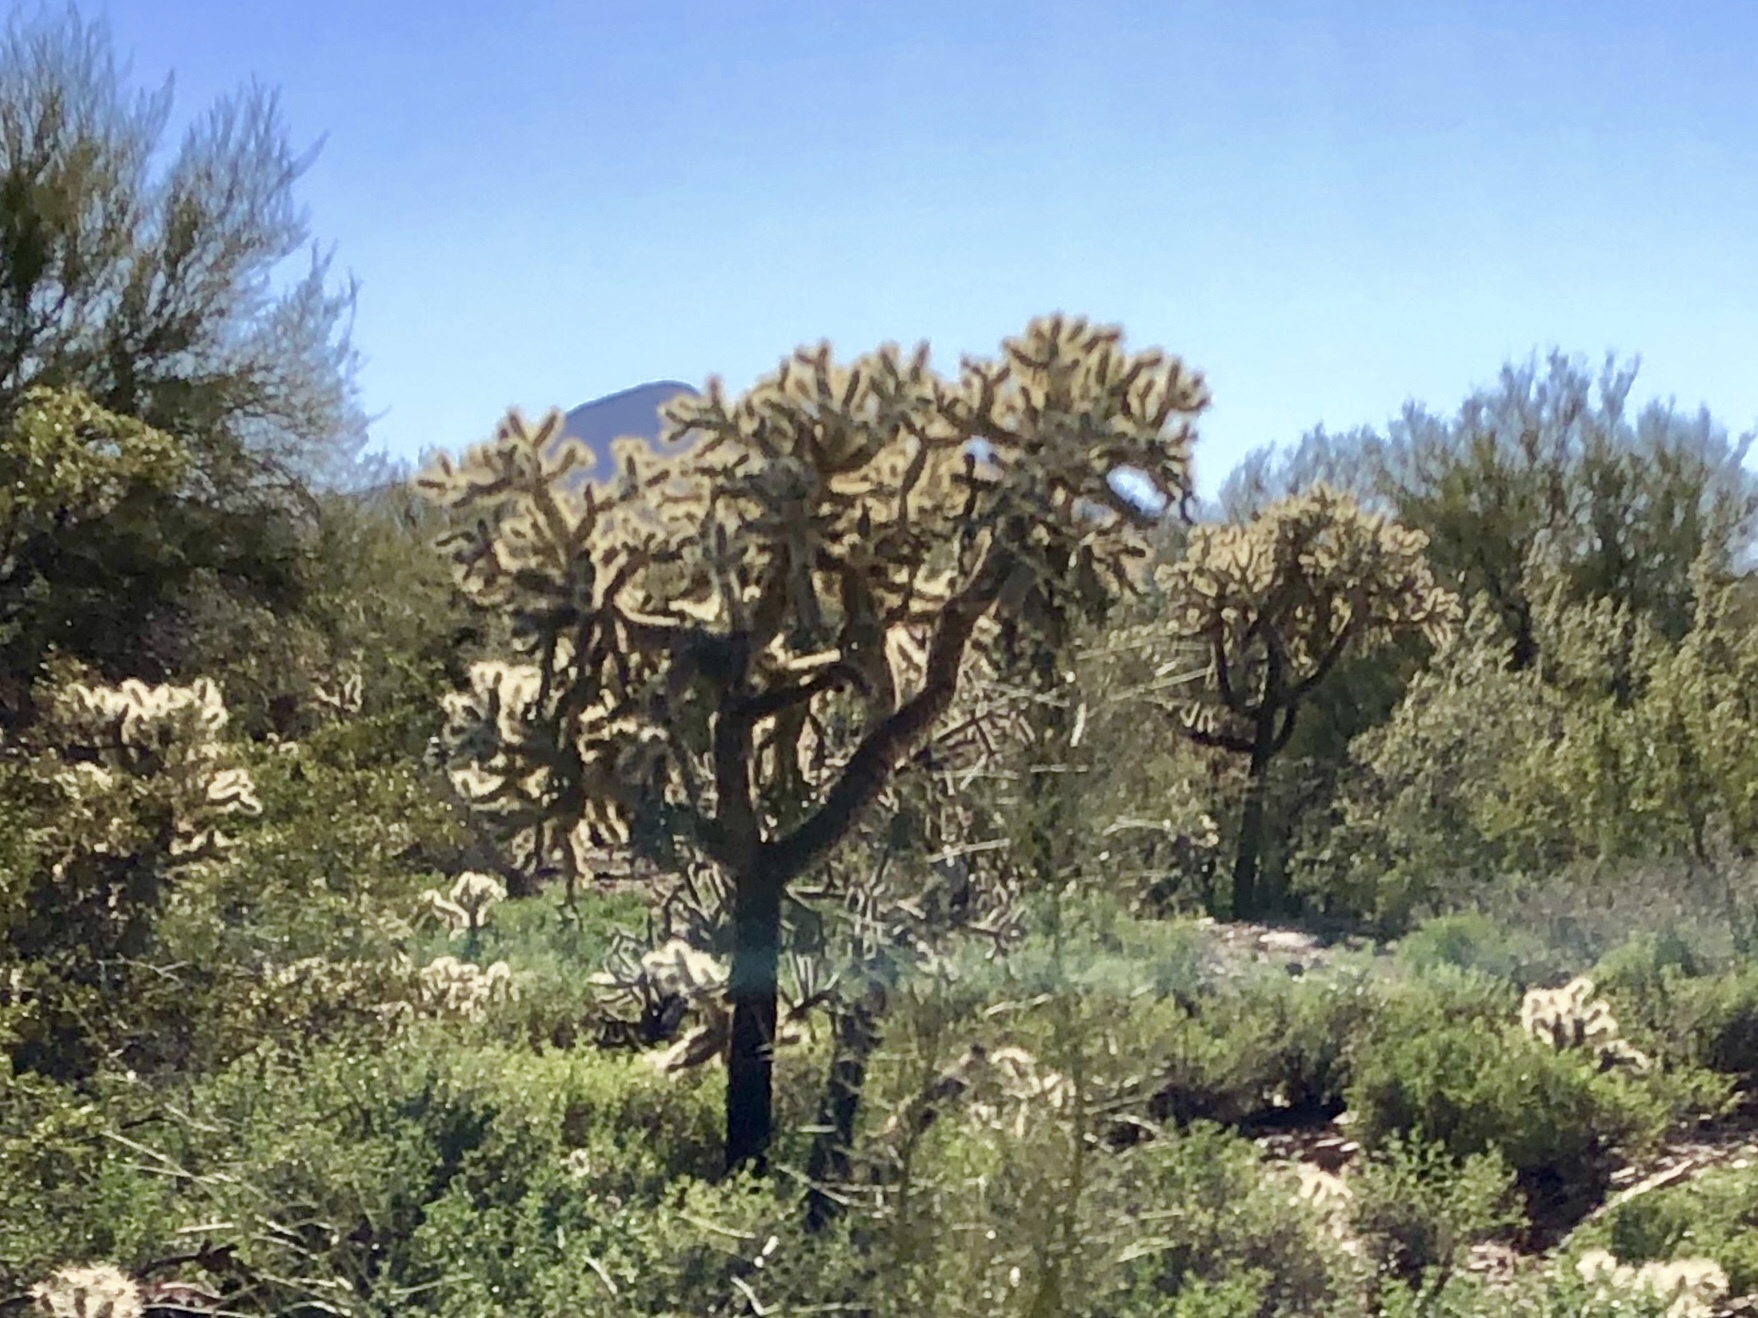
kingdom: Plantae
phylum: Tracheophyta
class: Magnoliopsida
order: Caryophyllales
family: Cactaceae
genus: Cylindropuntia
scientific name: Cylindropuntia fulgida
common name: Jumping cholla
